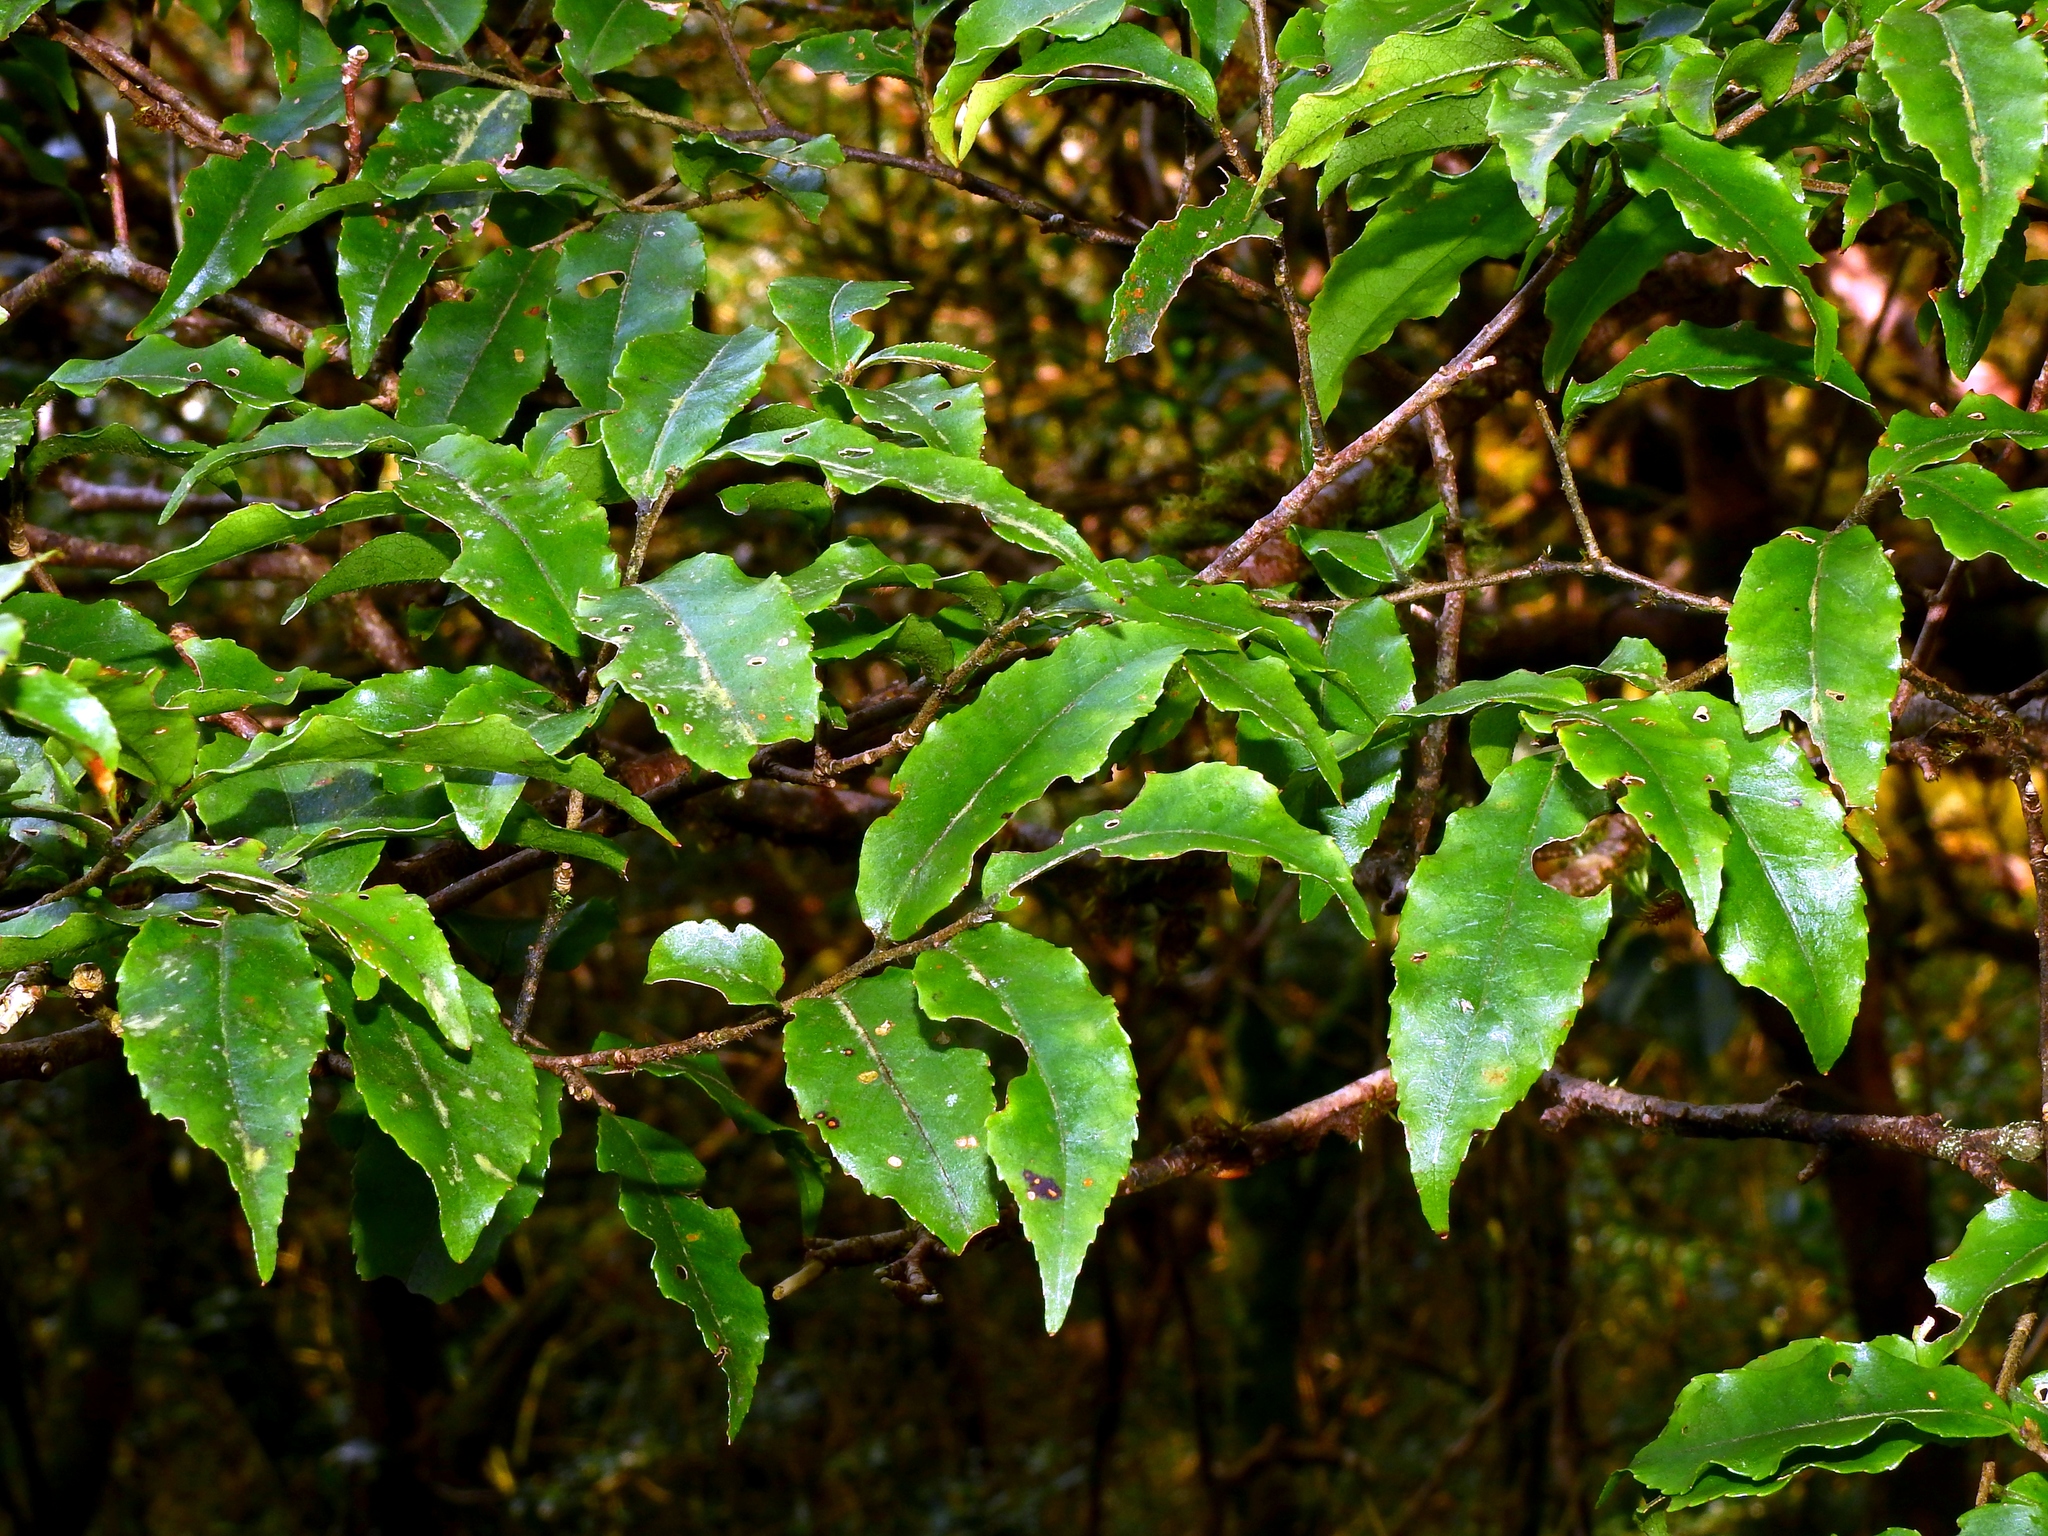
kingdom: Plantae
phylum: Tracheophyta
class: Magnoliopsida
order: Ericales
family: Symplocaceae
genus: Symplocos
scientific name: Symplocos lancifolia
